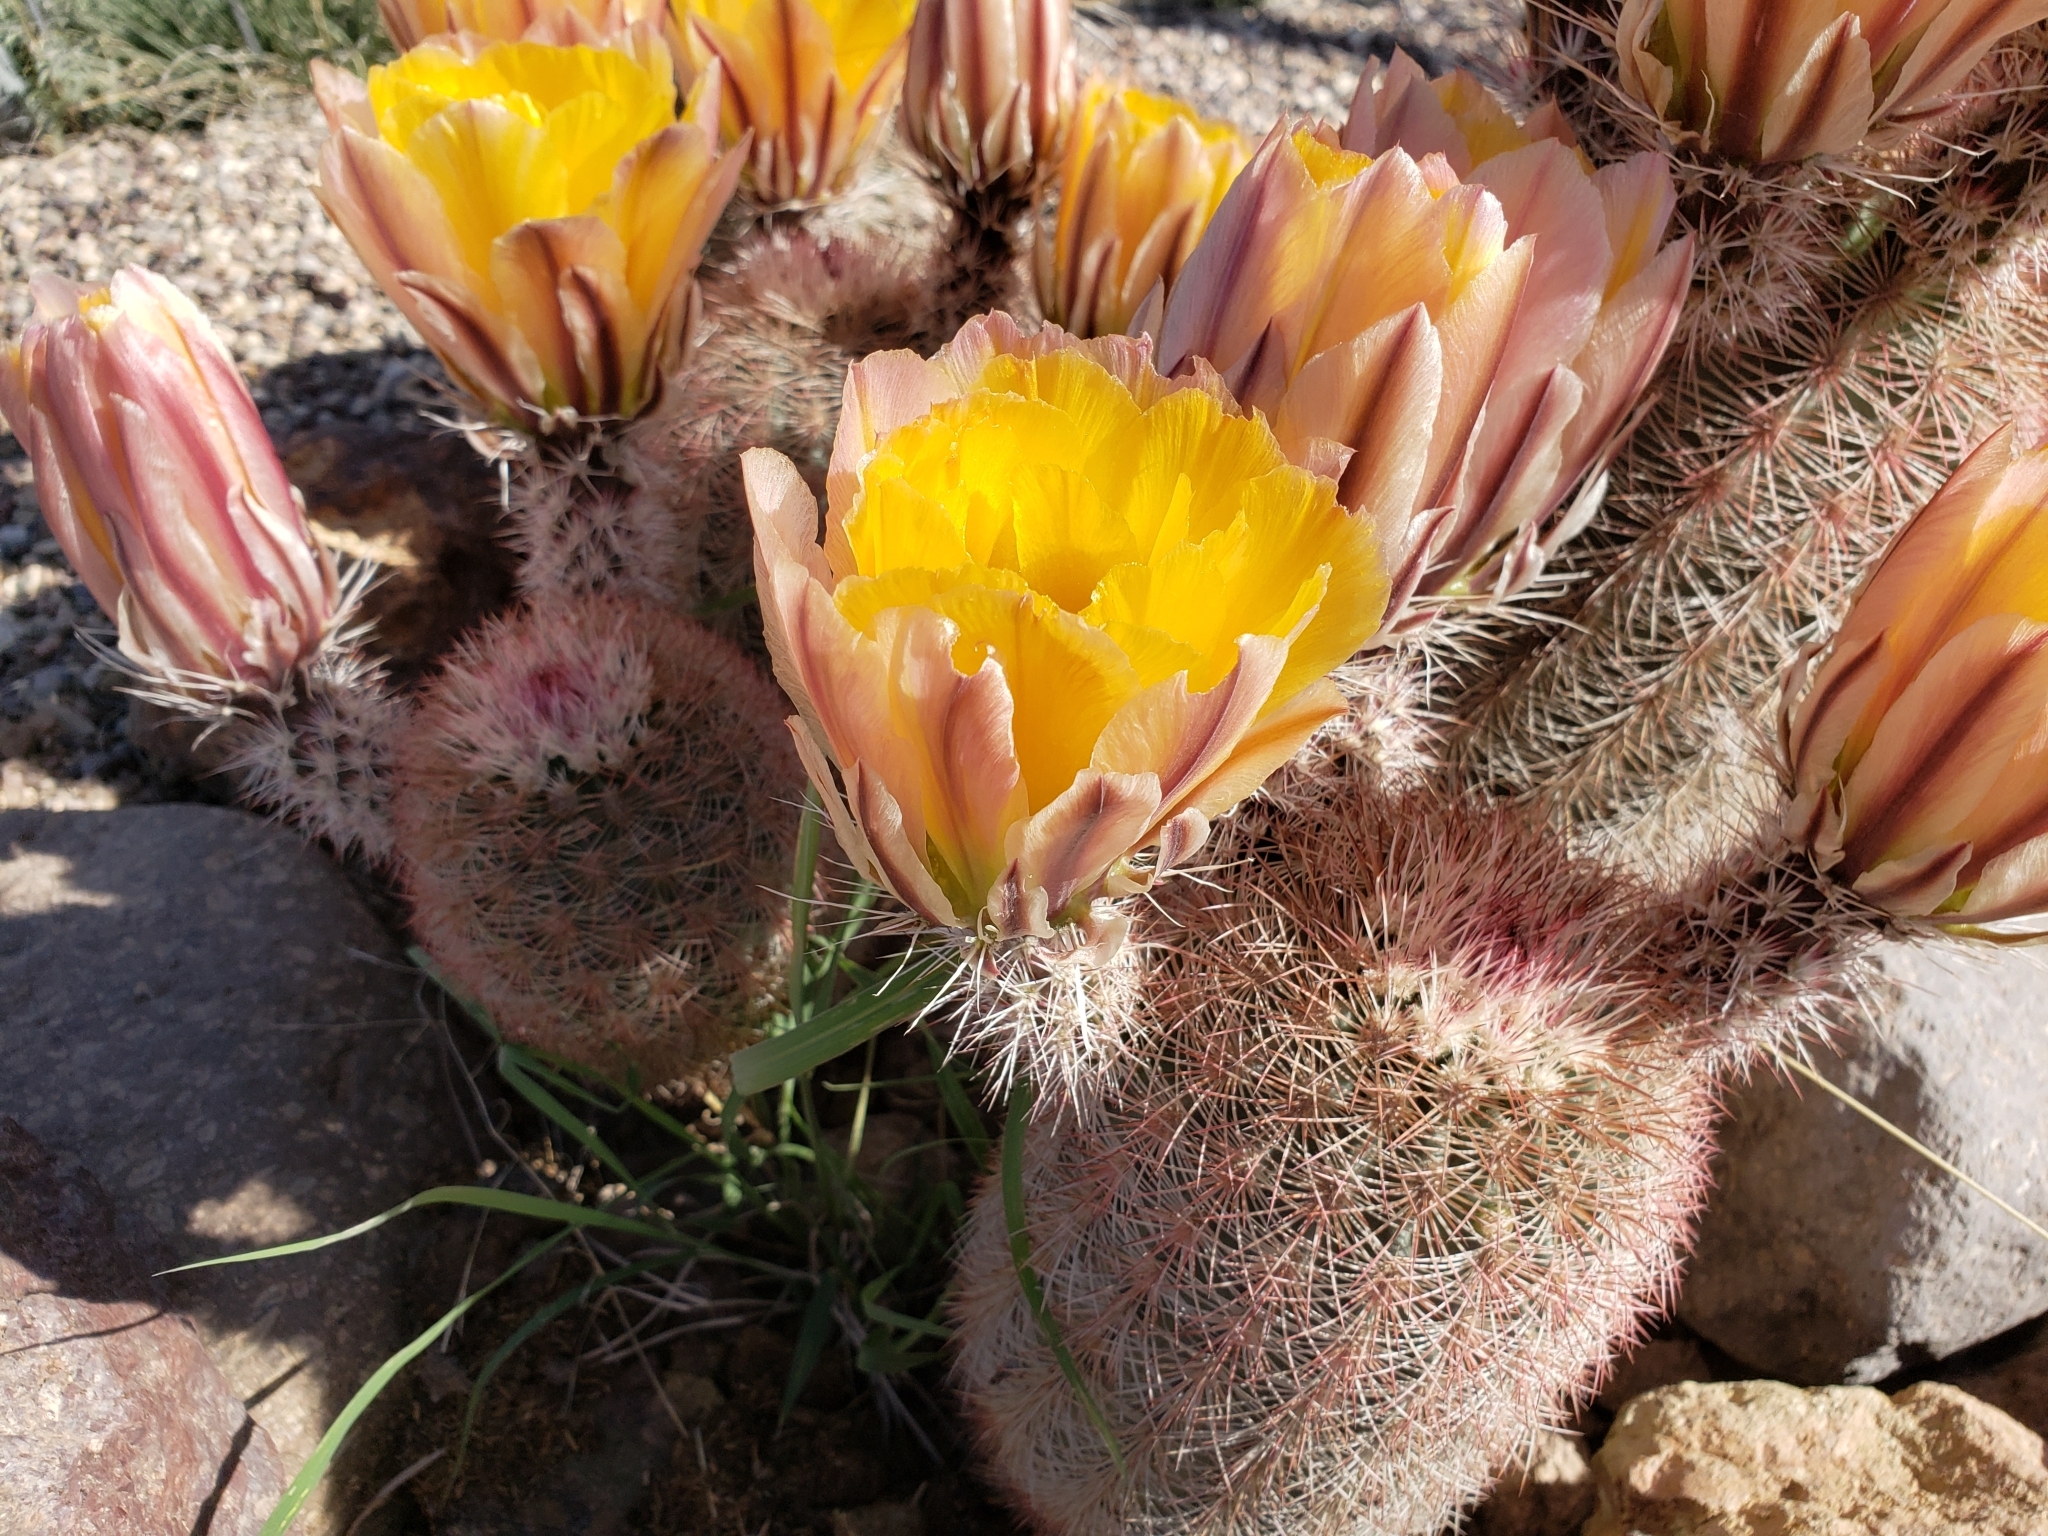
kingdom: Plantae
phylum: Tracheophyta
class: Magnoliopsida
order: Caryophyllales
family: Cactaceae
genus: Echinocereus
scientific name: Echinocereus dasyacanthus
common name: Spiny hedgehog cactus
